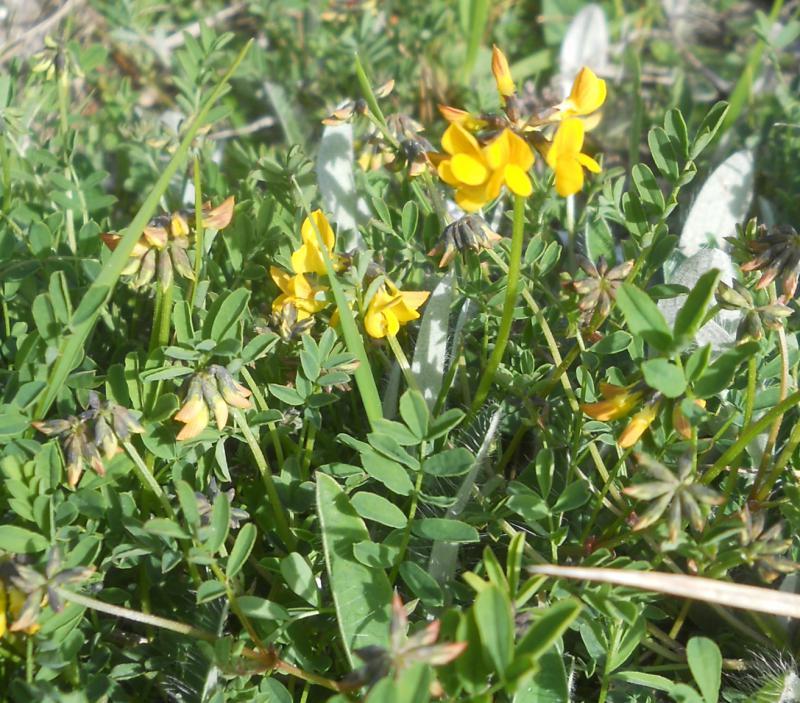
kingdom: Plantae
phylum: Tracheophyta
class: Magnoliopsida
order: Fabales
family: Fabaceae
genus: Hippocrepis
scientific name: Hippocrepis comosa
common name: Horseshoe vetch
